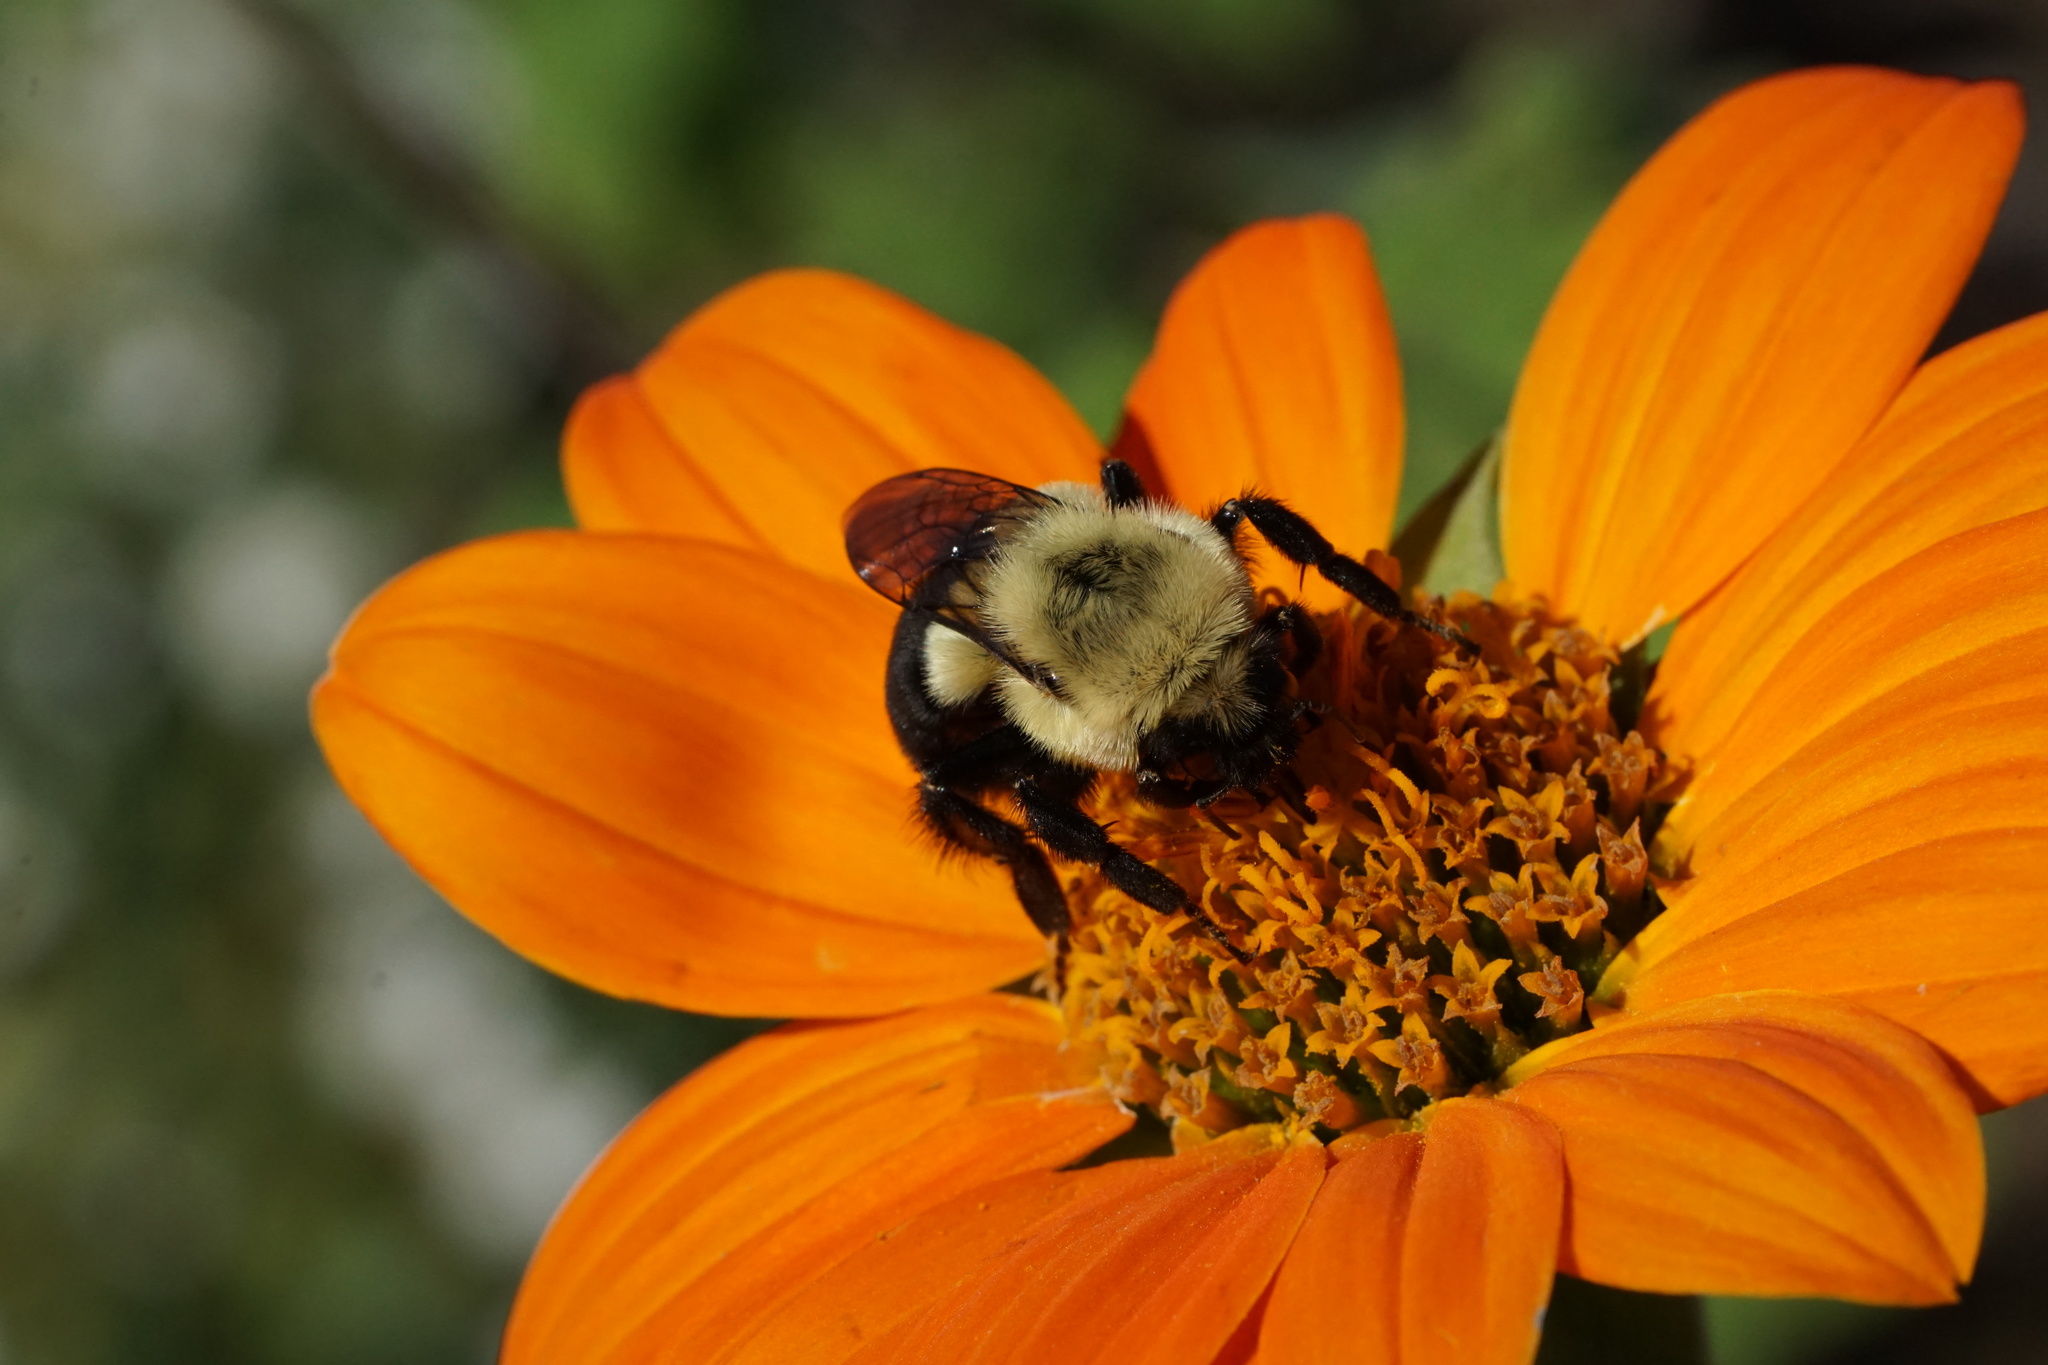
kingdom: Animalia
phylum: Arthropoda
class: Insecta
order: Hymenoptera
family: Apidae
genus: Bombus
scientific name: Bombus impatiens
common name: Common eastern bumble bee
